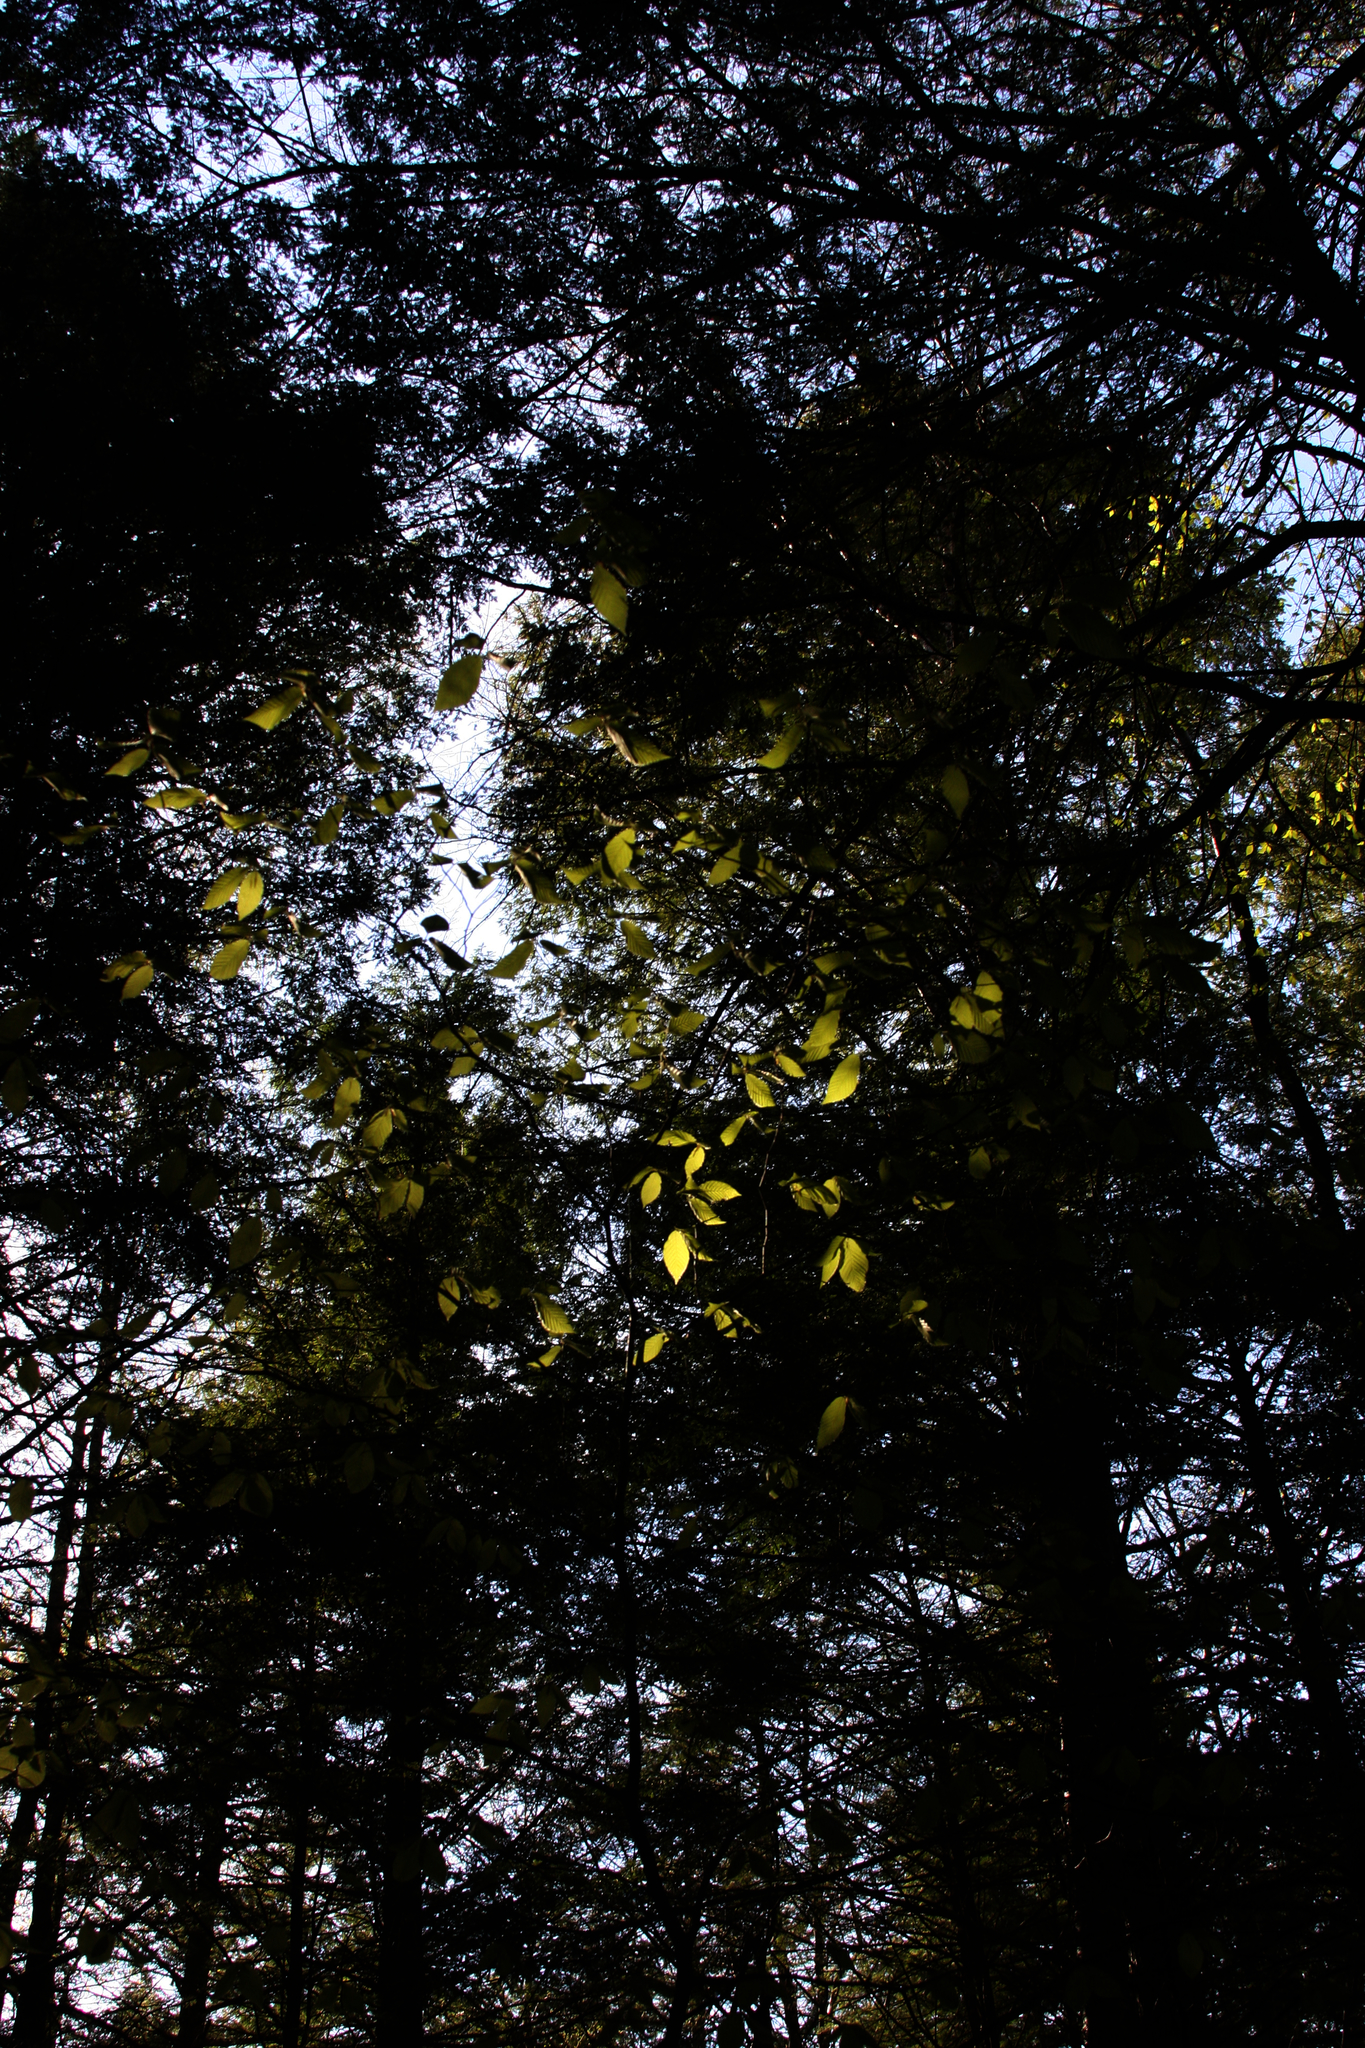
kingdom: Plantae
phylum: Tracheophyta
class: Magnoliopsida
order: Fagales
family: Fagaceae
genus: Fagus
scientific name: Fagus grandifolia
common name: American beech
